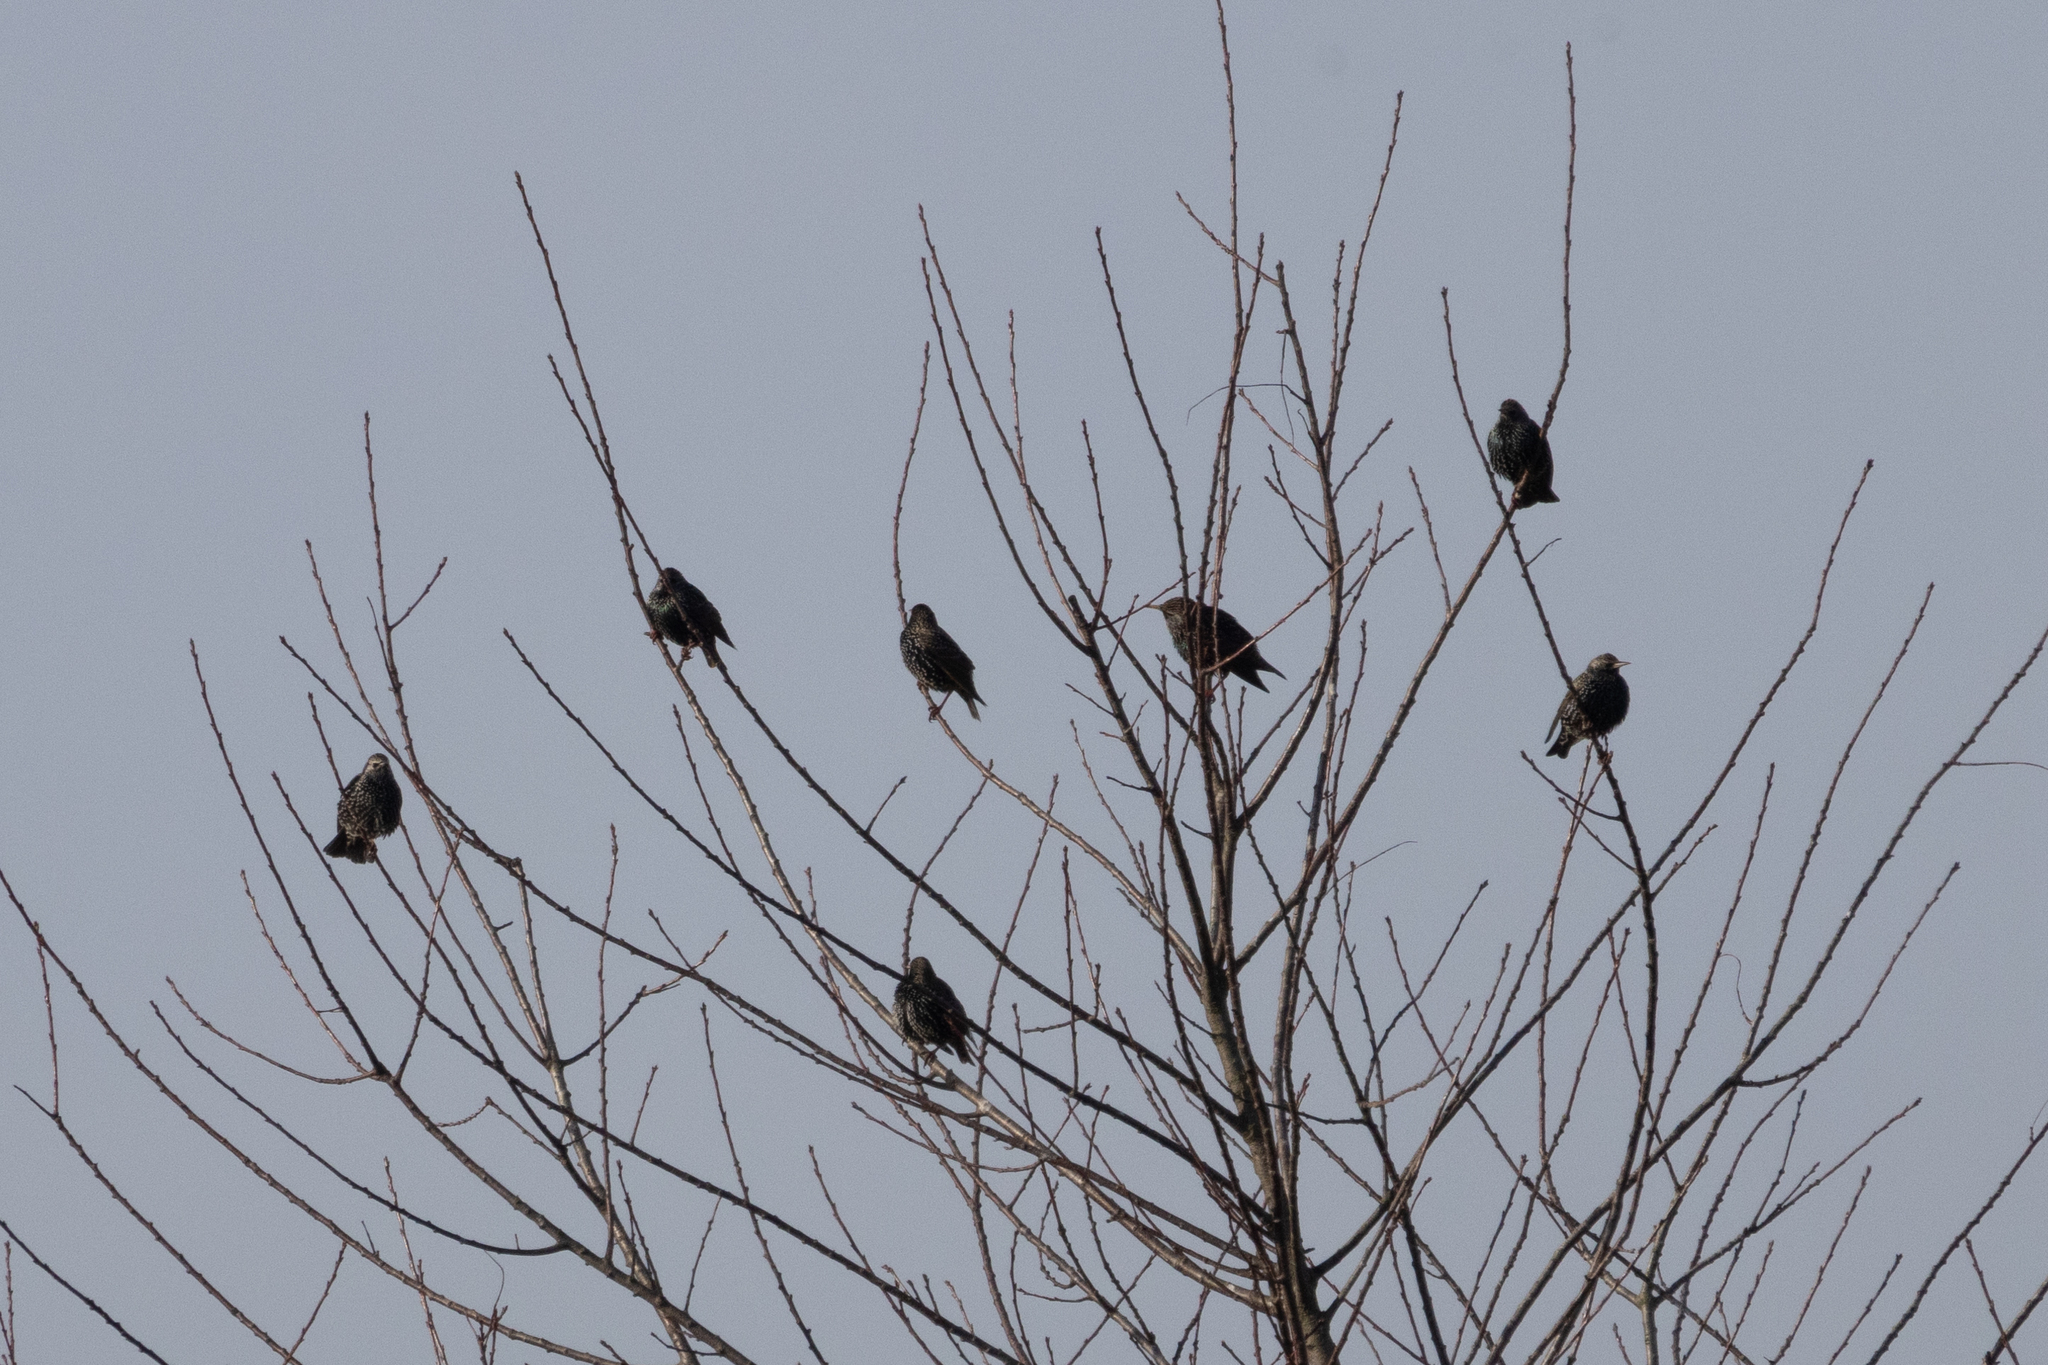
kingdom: Animalia
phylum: Chordata
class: Aves
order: Passeriformes
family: Sturnidae
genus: Sturnus
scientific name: Sturnus vulgaris
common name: Common starling
